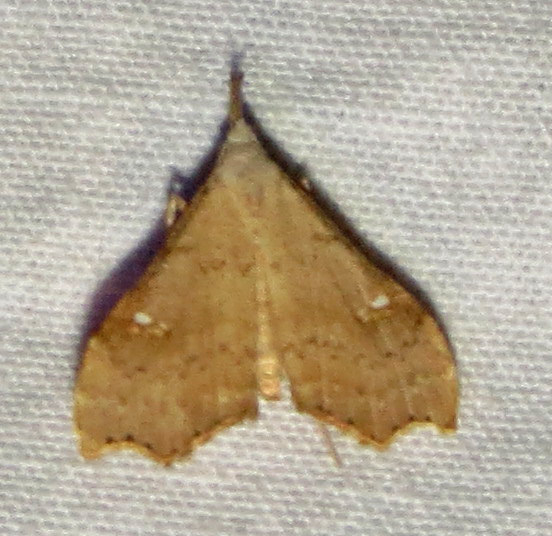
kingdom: Animalia
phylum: Arthropoda
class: Insecta
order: Lepidoptera
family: Erebidae
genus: Redectis
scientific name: Redectis vitrea
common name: White-spotted redectis
